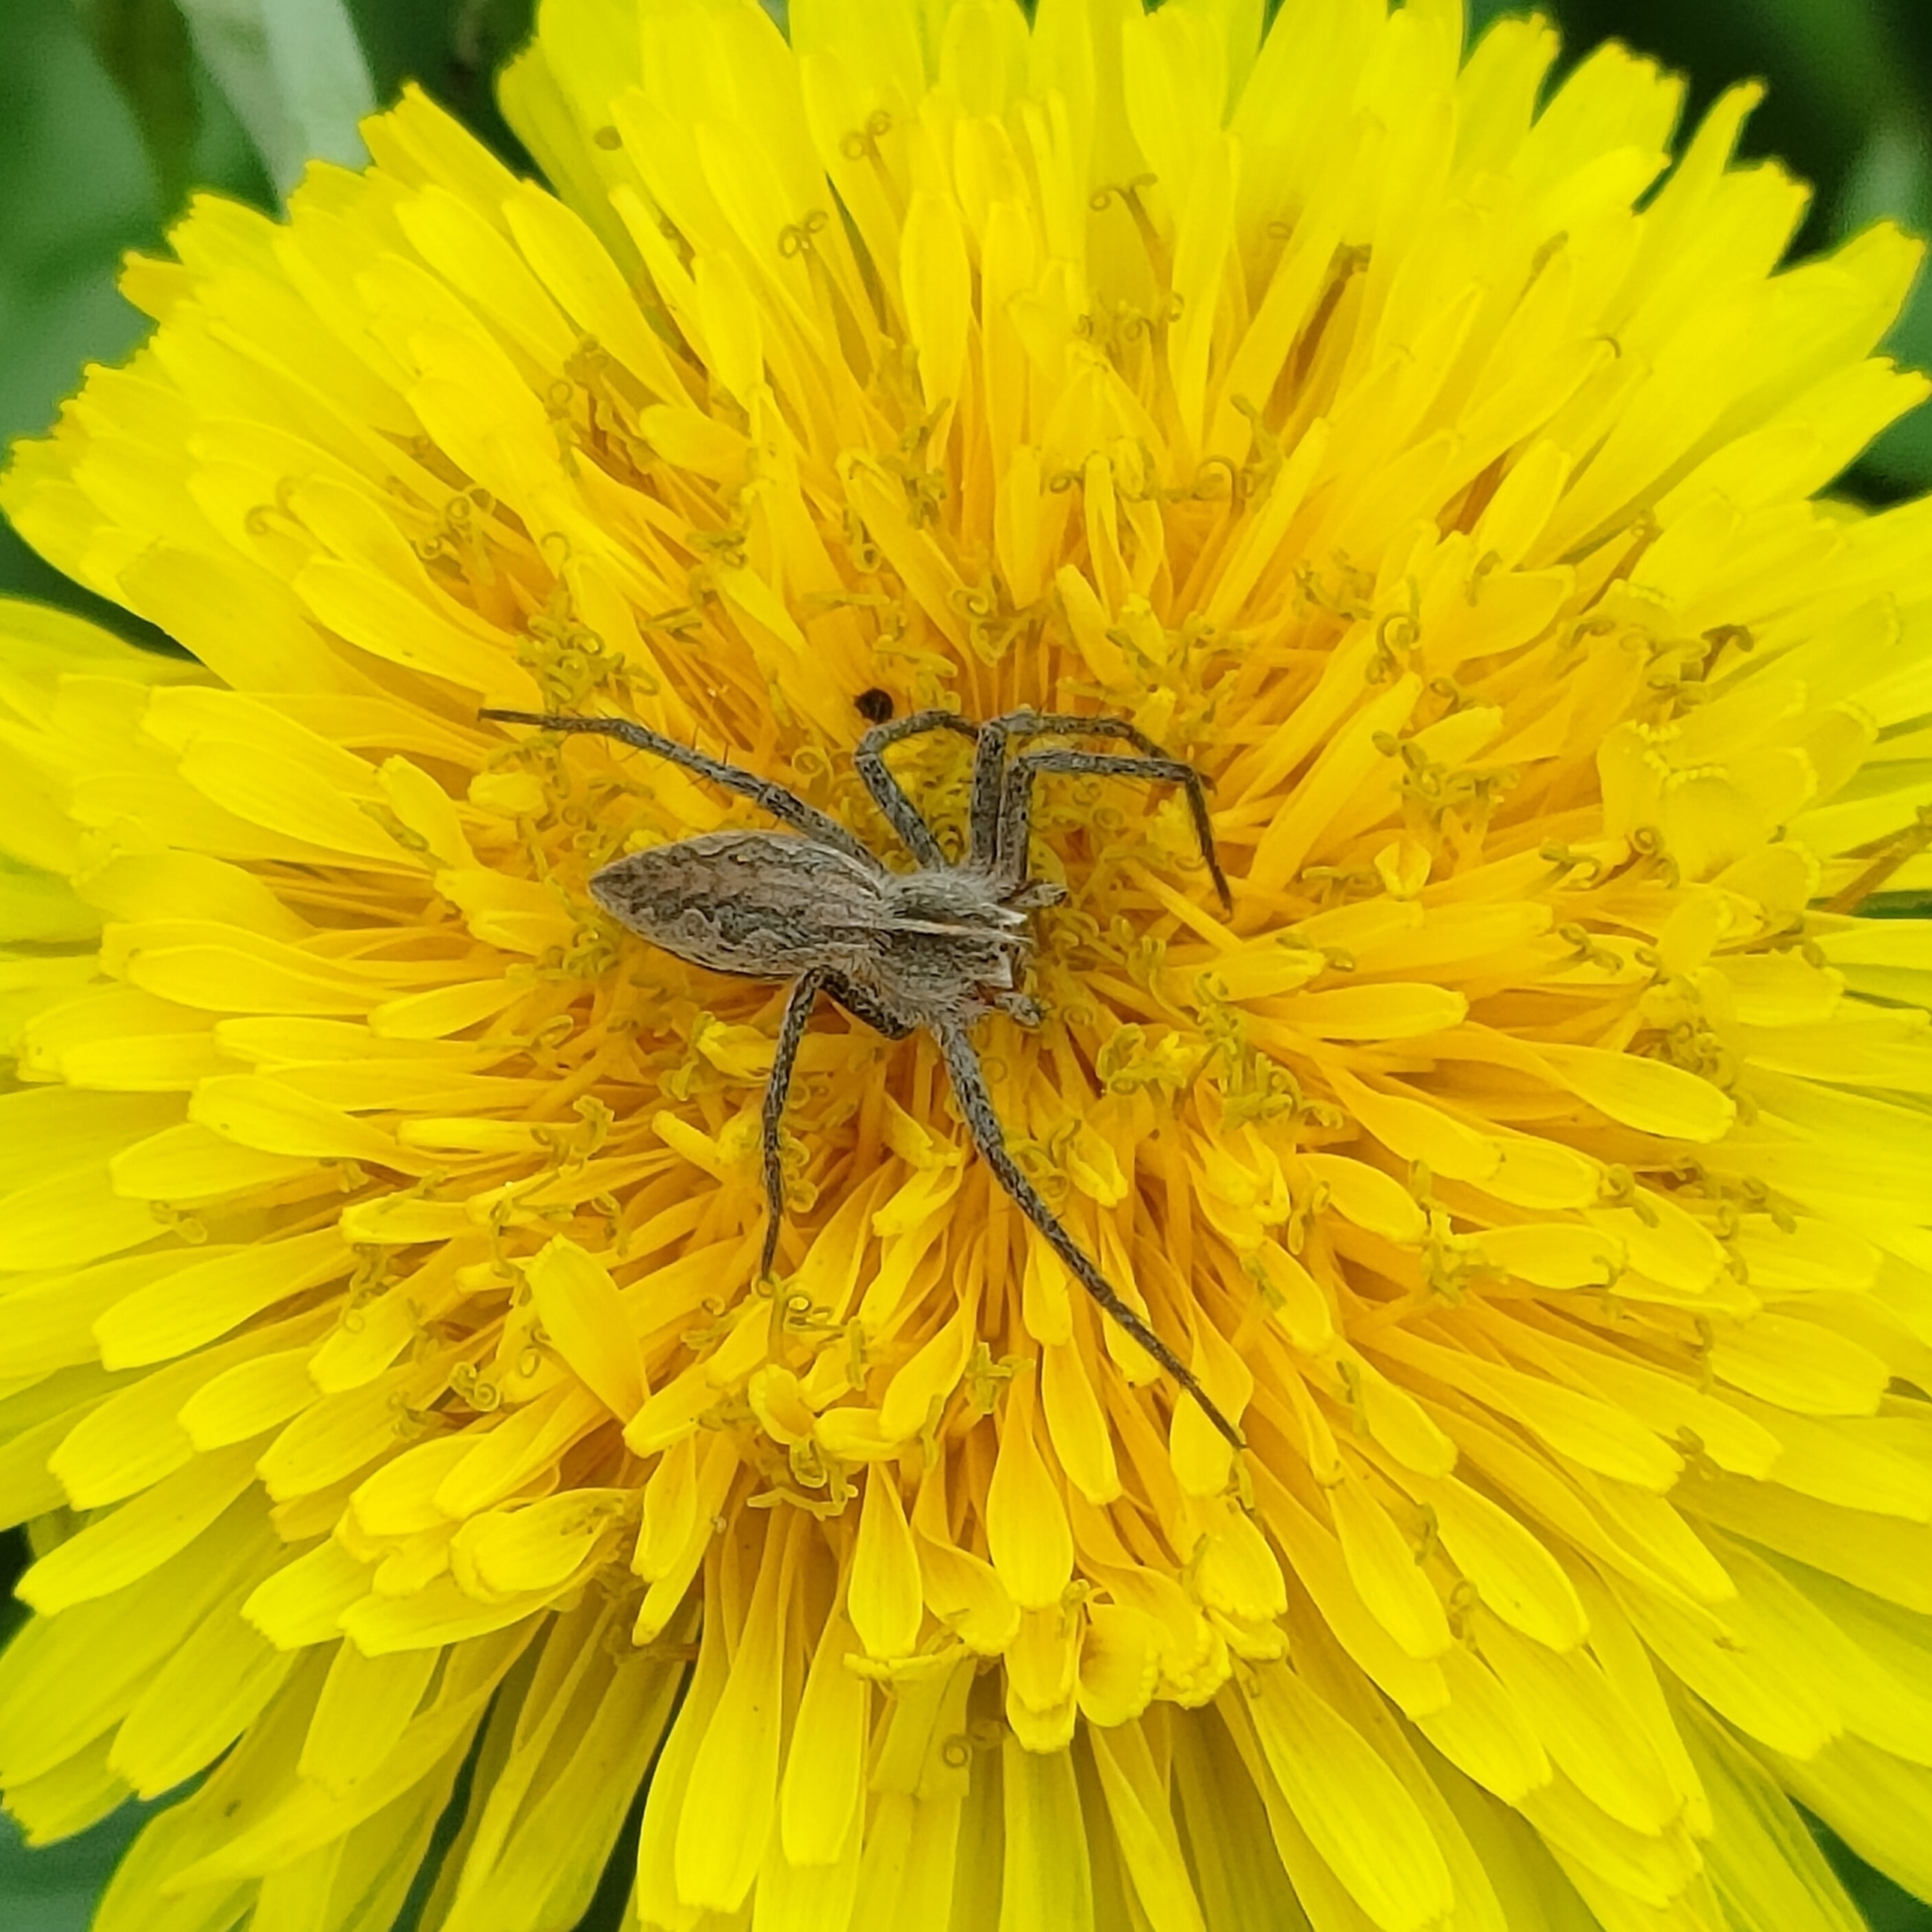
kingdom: Animalia
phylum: Arthropoda
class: Arachnida
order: Araneae
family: Pisauridae
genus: Pisaura
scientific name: Pisaura
